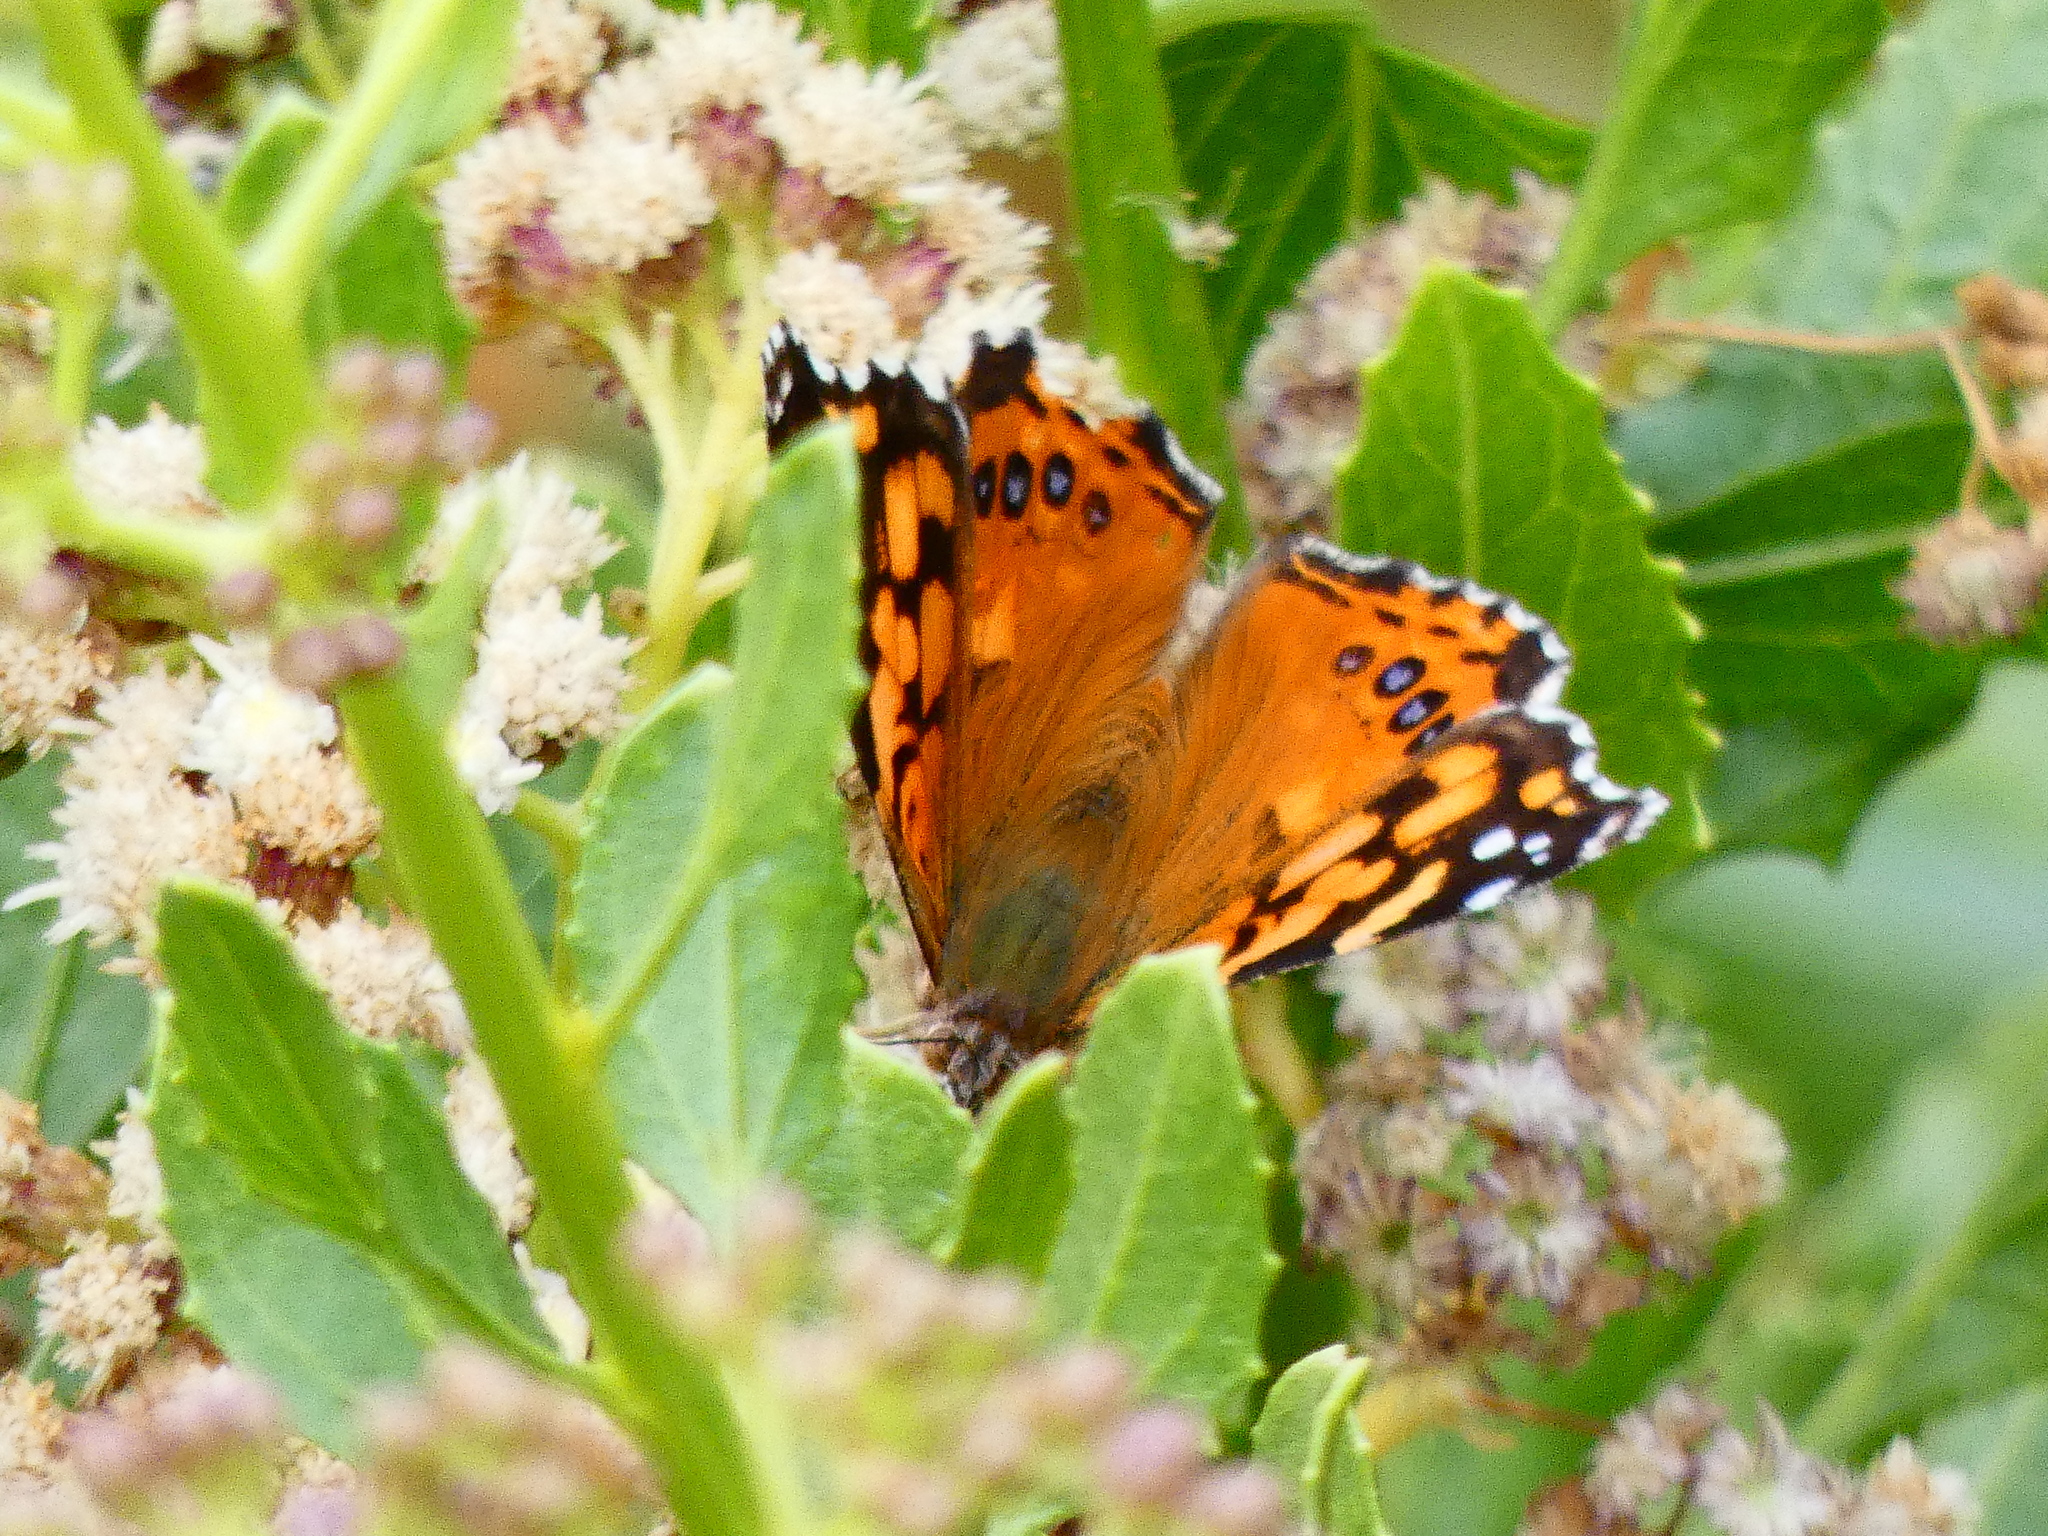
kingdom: Animalia
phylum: Arthropoda
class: Insecta
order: Lepidoptera
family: Nymphalidae
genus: Vanessa
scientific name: Vanessa carye
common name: Subtropical lady
